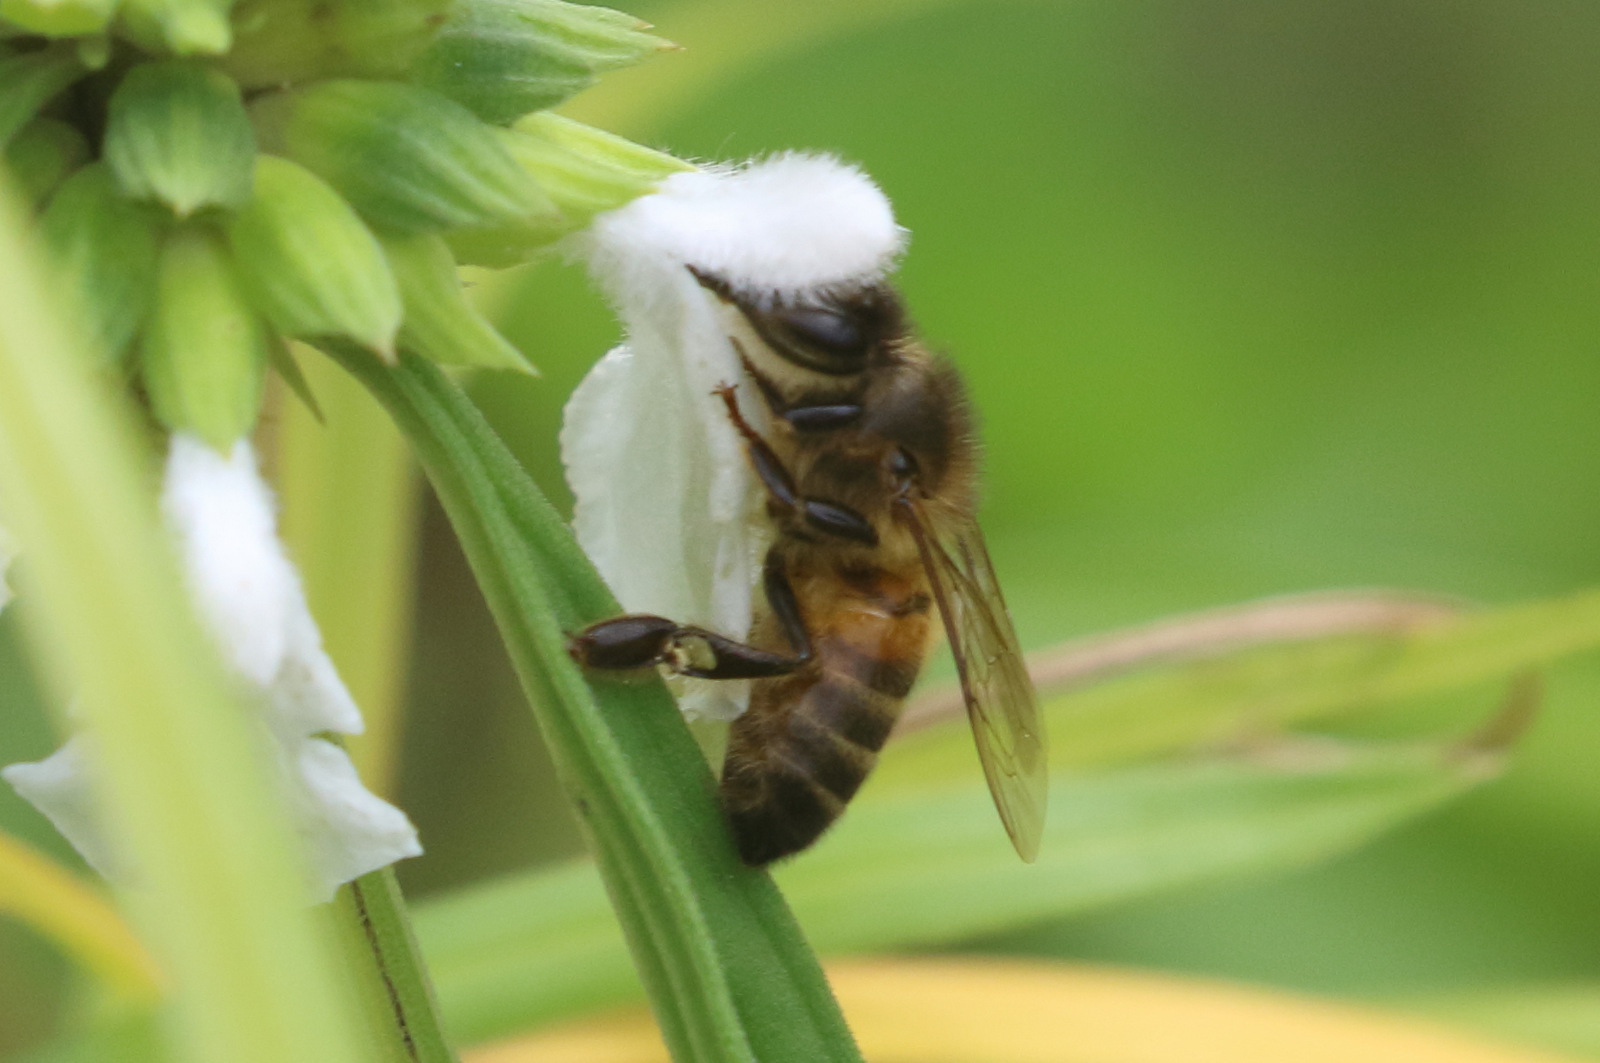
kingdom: Animalia
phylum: Arthropoda
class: Insecta
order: Hymenoptera
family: Apidae
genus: Apis
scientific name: Apis mellifera
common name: Honey bee
